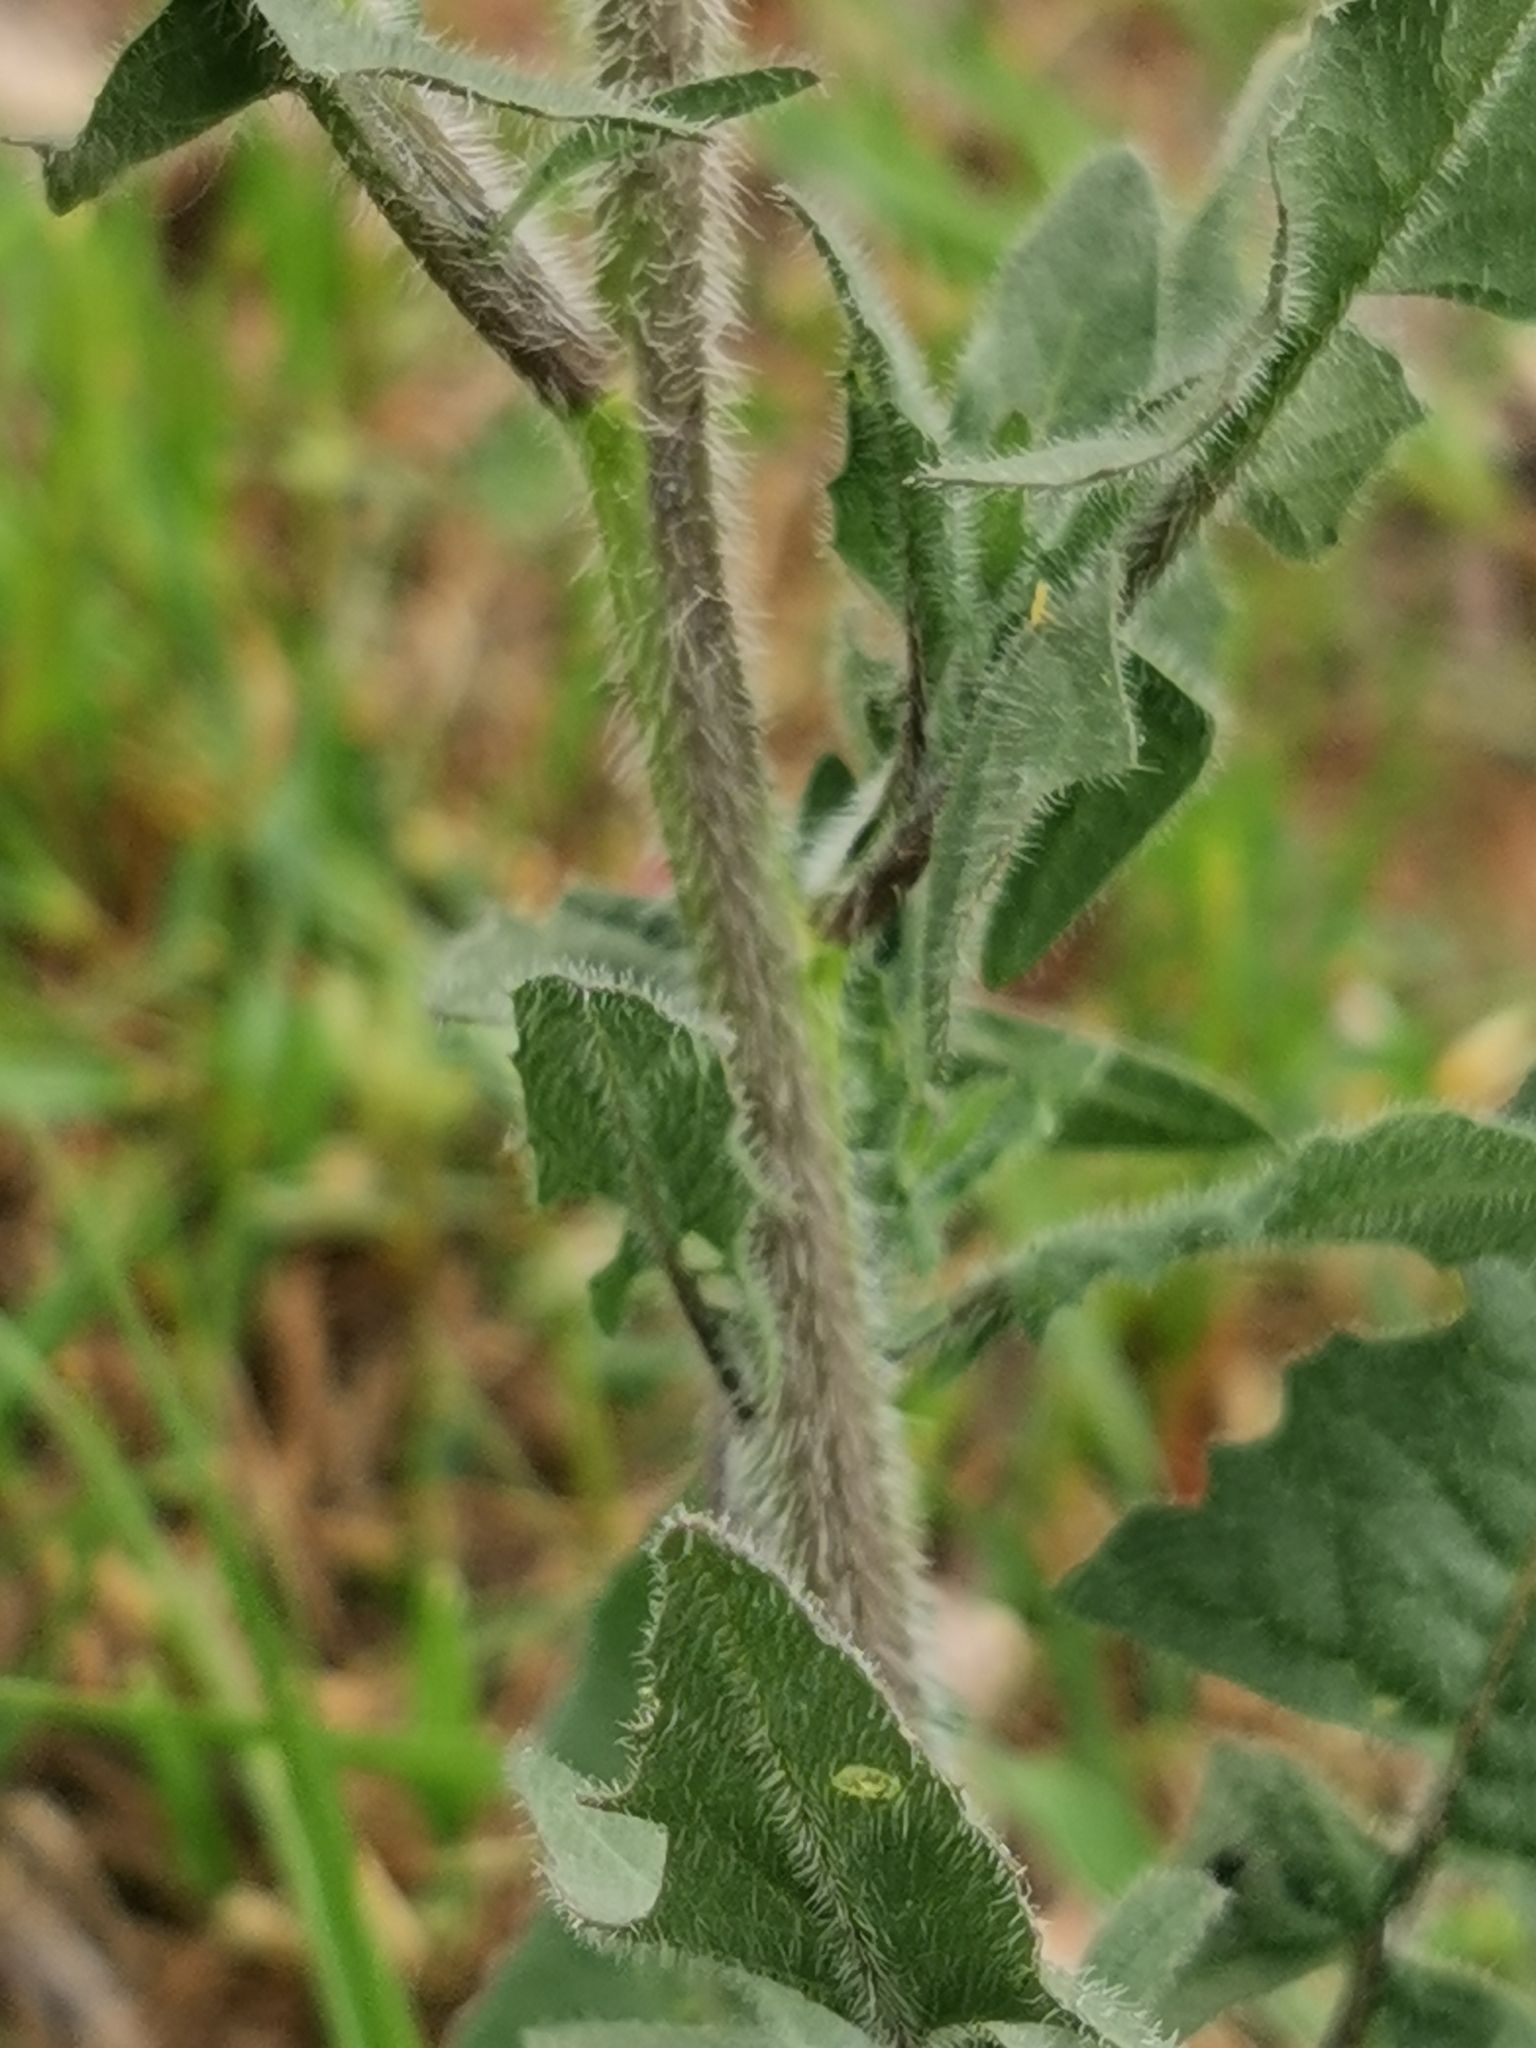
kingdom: Plantae
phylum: Tracheophyta
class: Magnoliopsida
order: Brassicales
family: Brassicaceae
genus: Sisymbrium
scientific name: Sisymbrium loeselii
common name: False london-rocket
